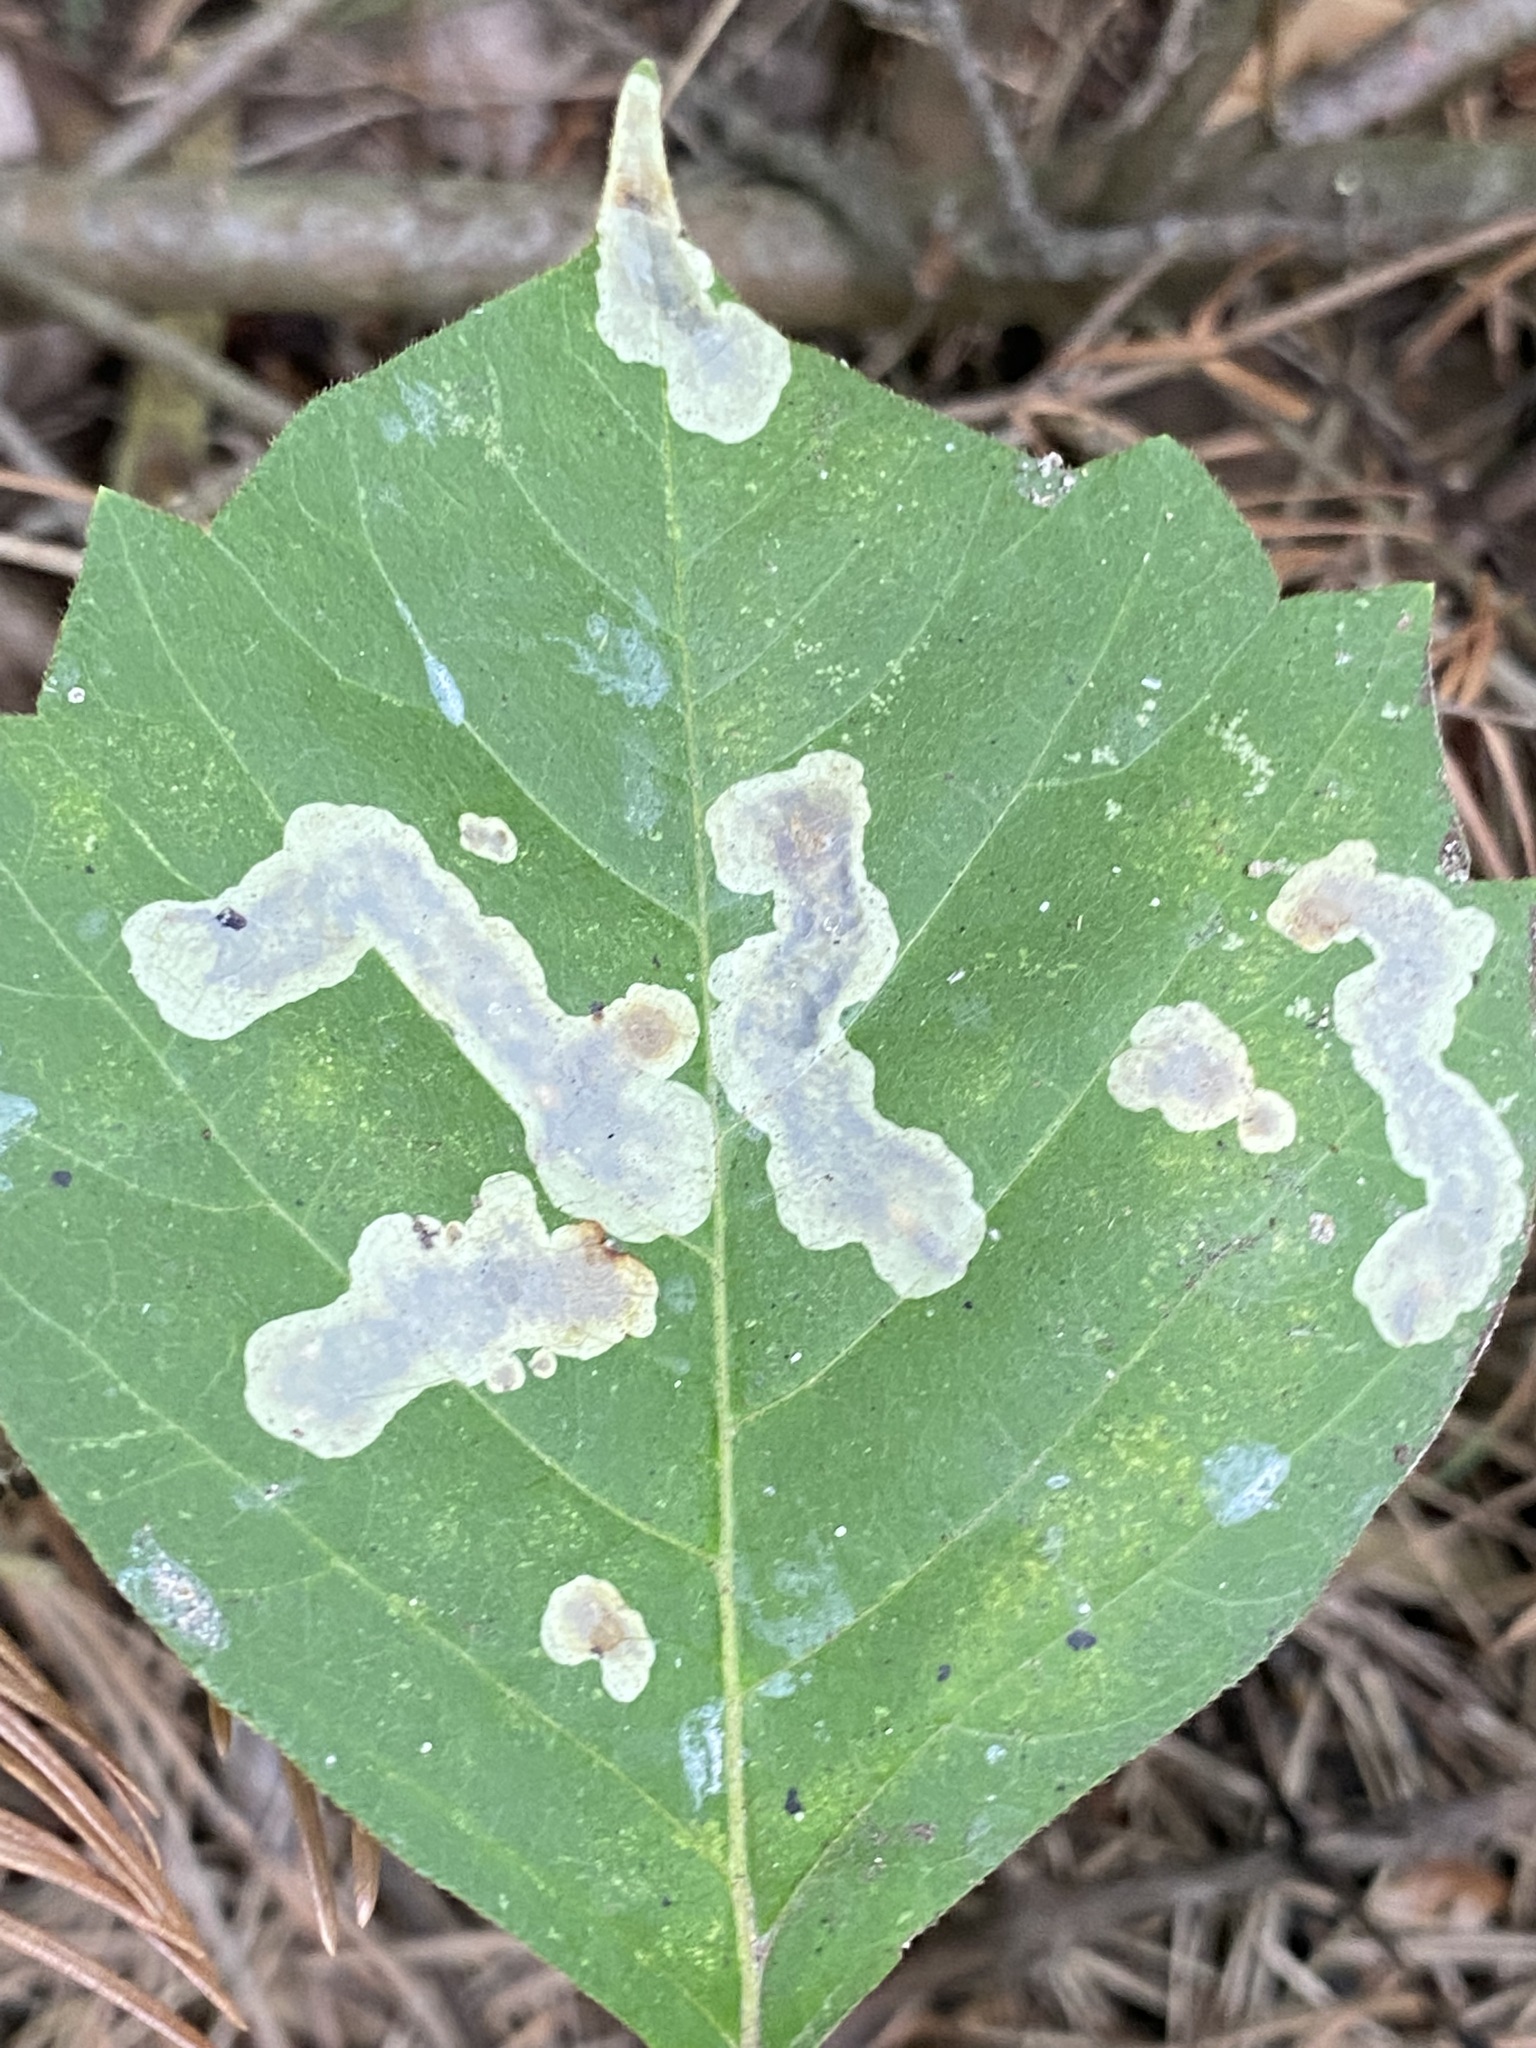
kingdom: Animalia
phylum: Arthropoda
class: Insecta
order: Lepidoptera
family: Gracillariidae
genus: Cameraria
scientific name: Cameraria guttifinitella
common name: Poison ivy leaf-miner moth
